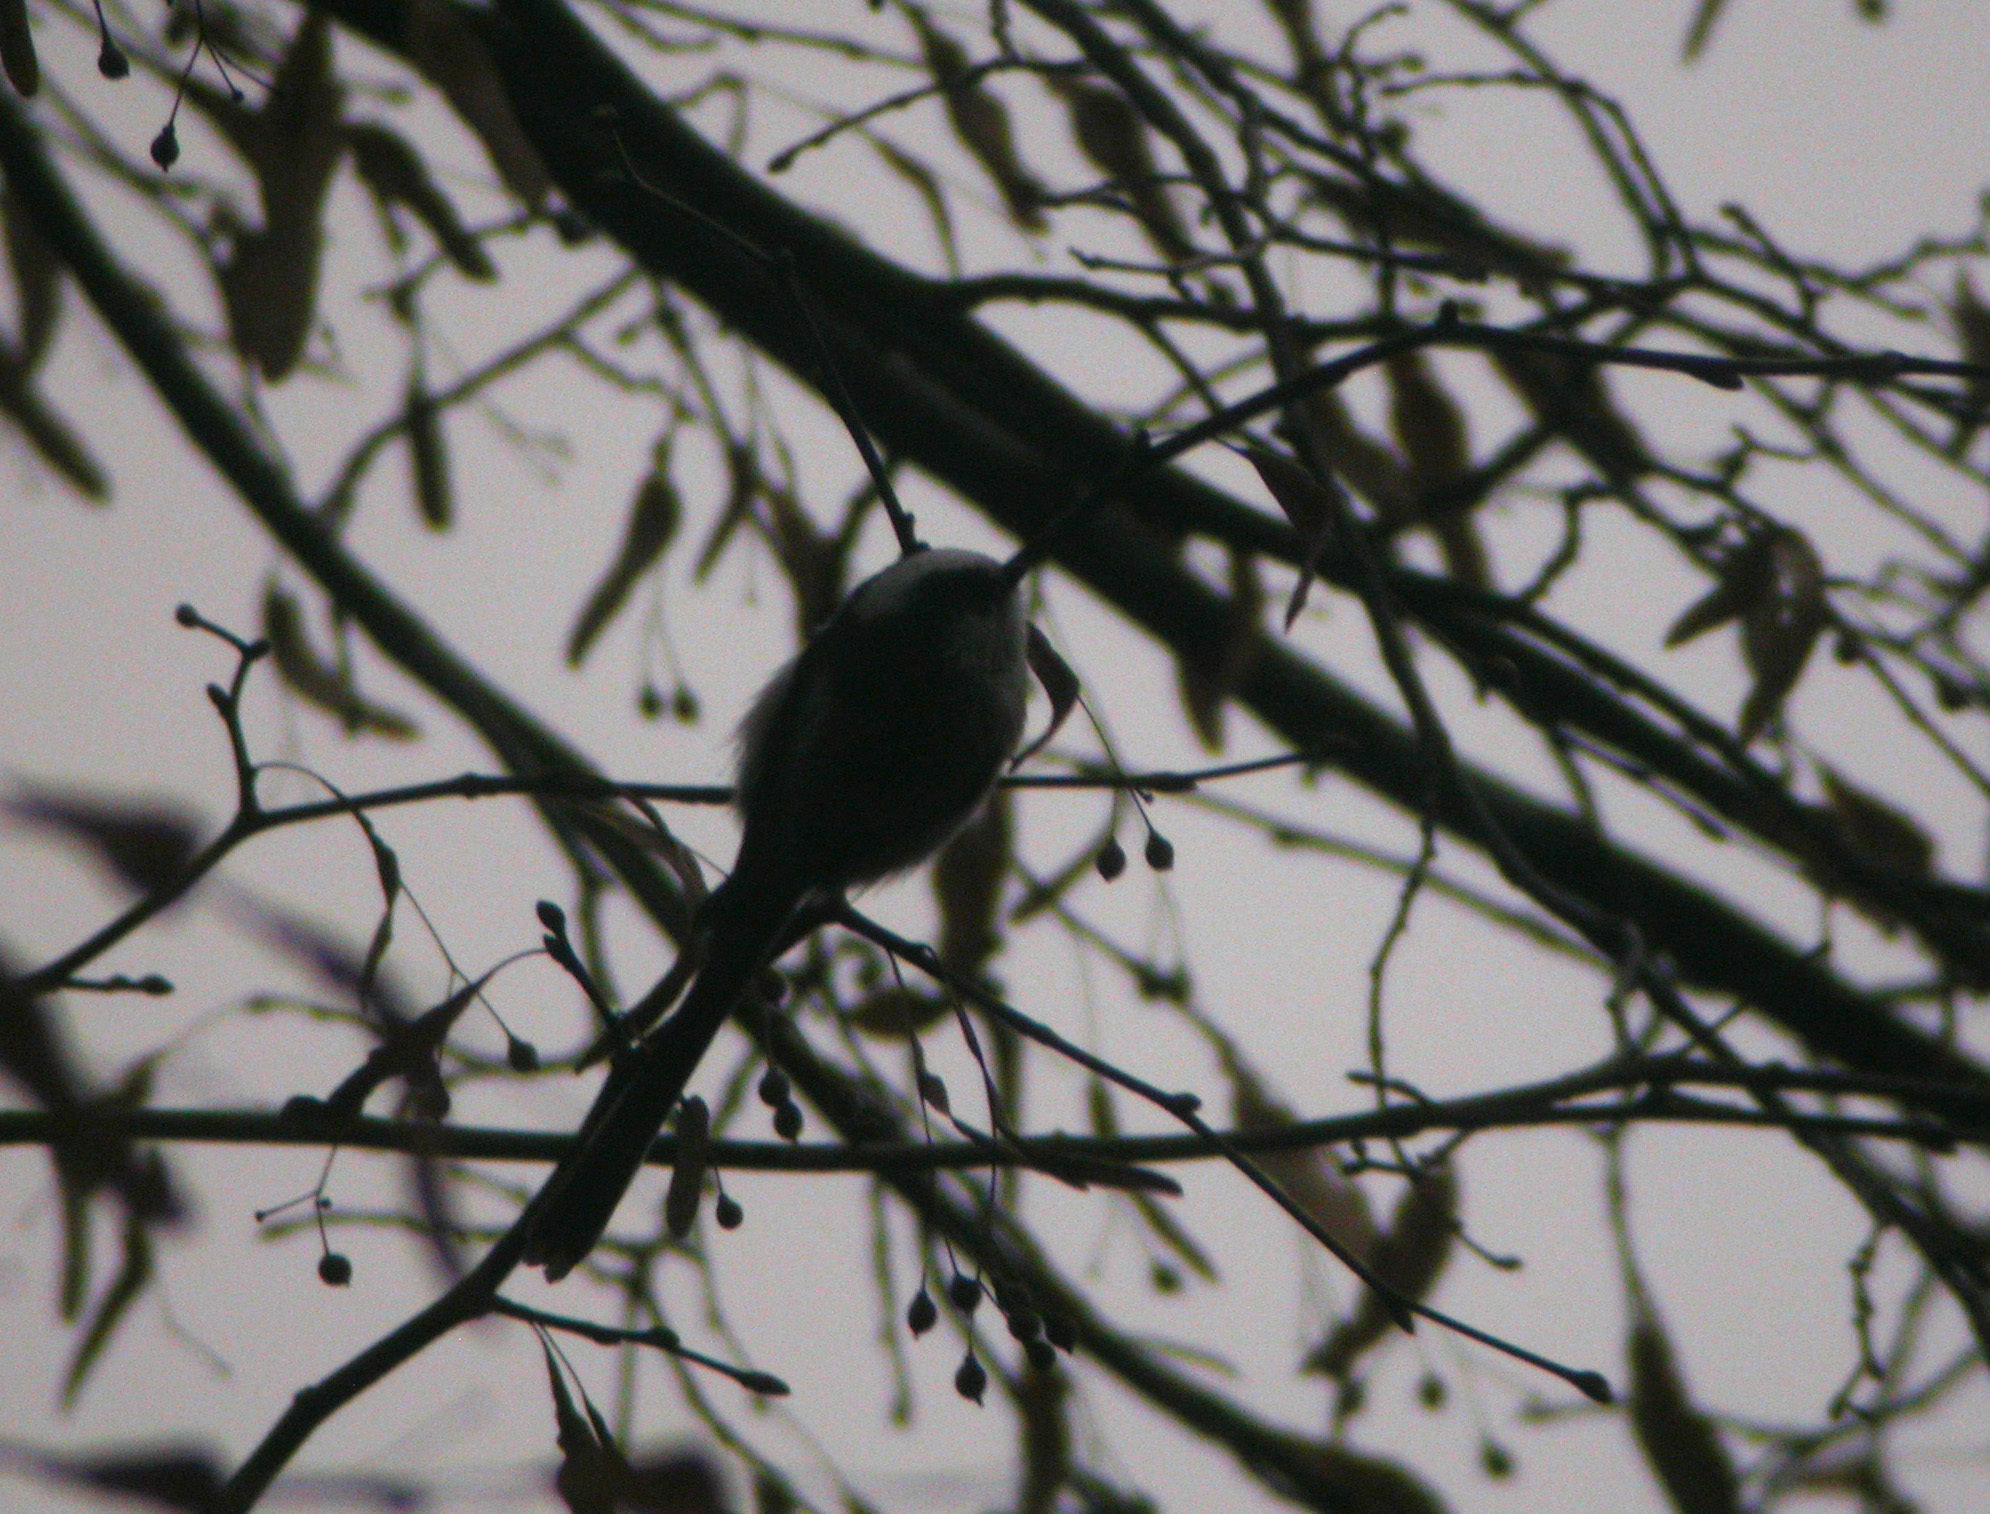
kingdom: Animalia
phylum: Chordata
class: Aves
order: Passeriformes
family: Aegithalidae
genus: Aegithalos
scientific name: Aegithalos caudatus
